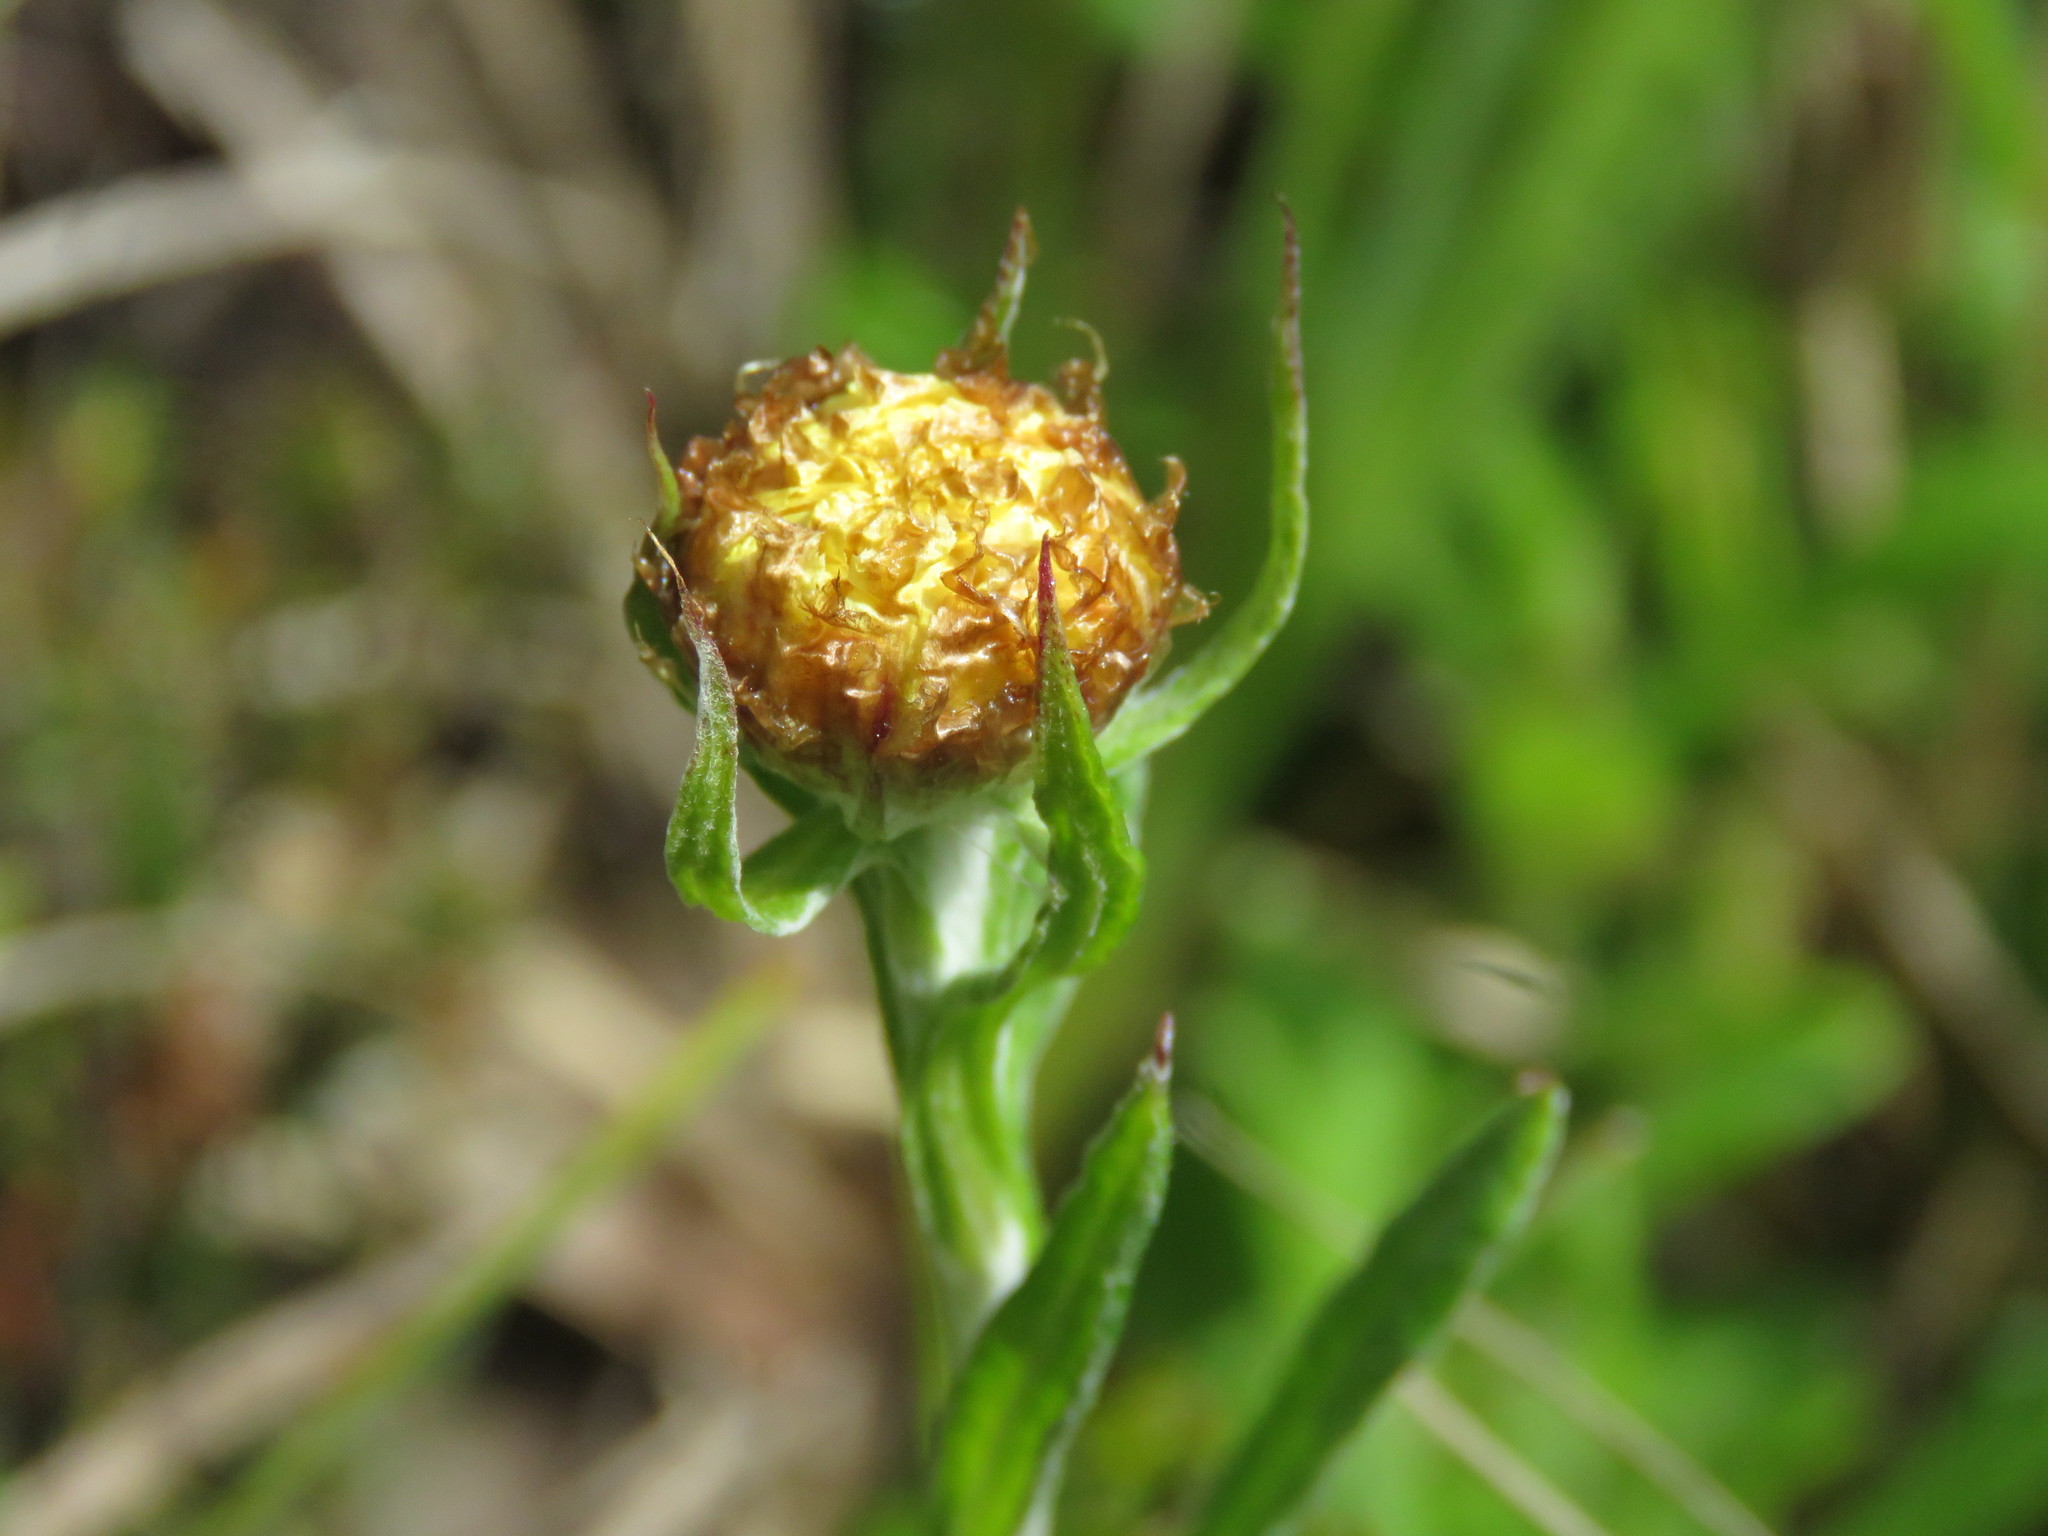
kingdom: Plantae
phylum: Tracheophyta
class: Magnoliopsida
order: Asterales
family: Asteraceae
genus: Coronidium
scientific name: Coronidium scorpioides
